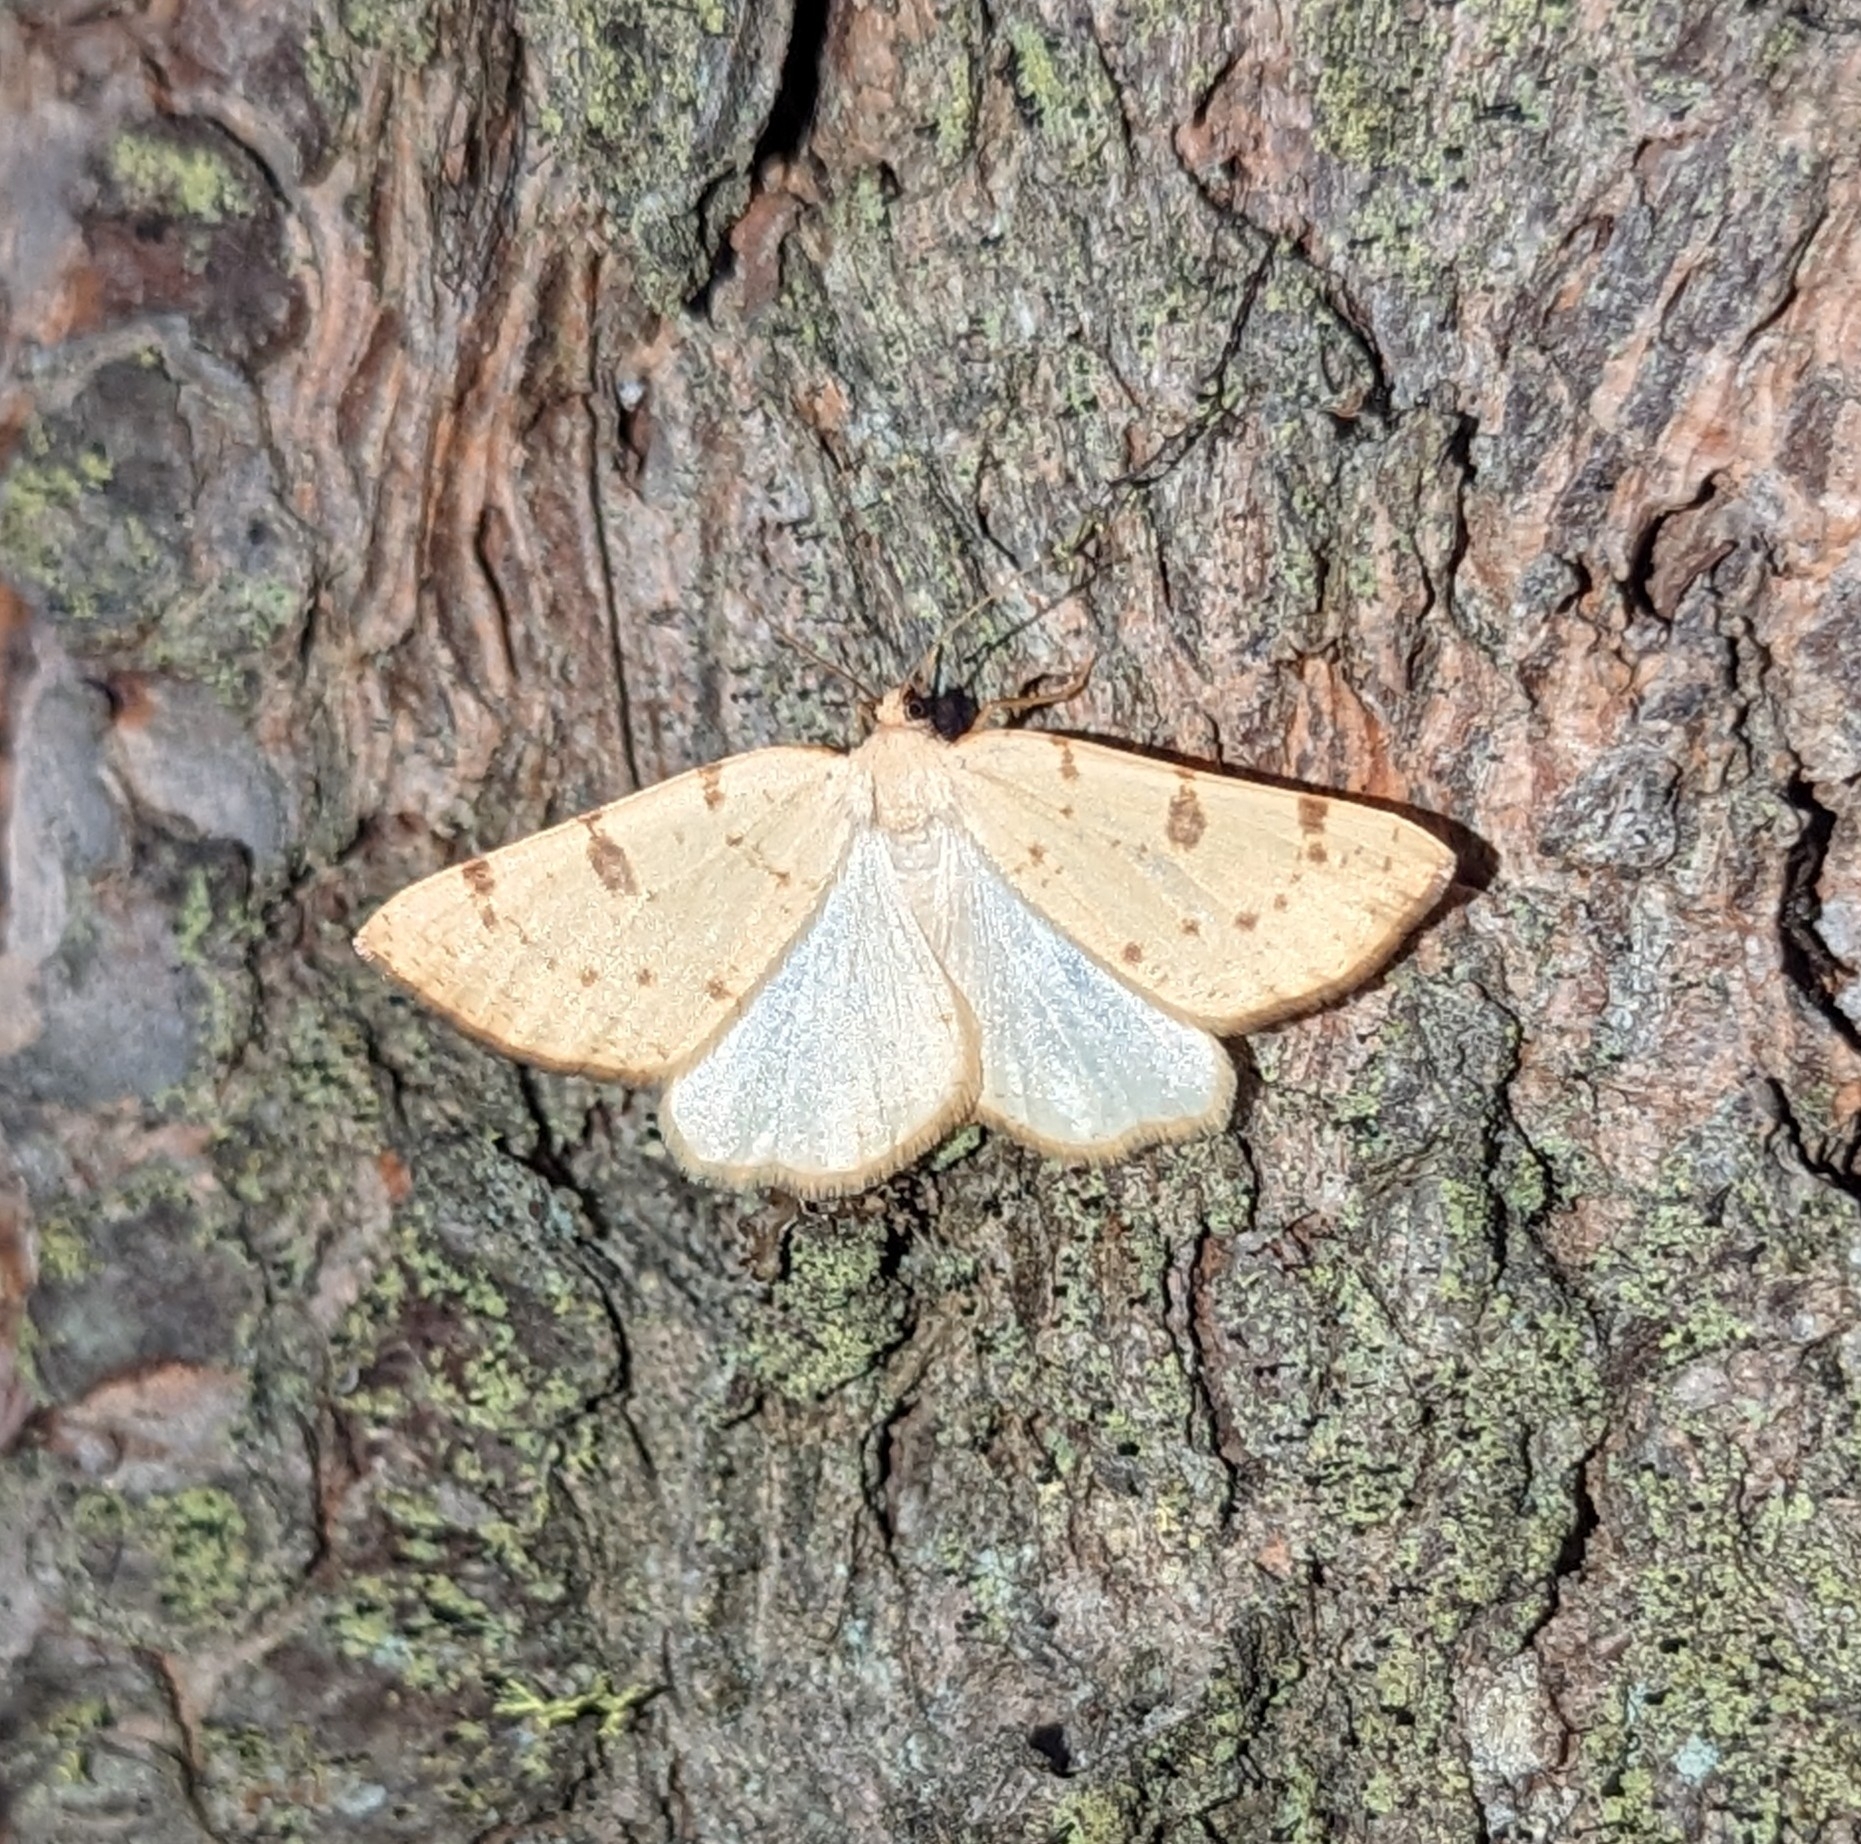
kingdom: Animalia
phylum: Arthropoda
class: Insecta
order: Lepidoptera
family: Geometridae
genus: Hesperumia
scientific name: Hesperumia sulphuraria
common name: Sulphur moth
